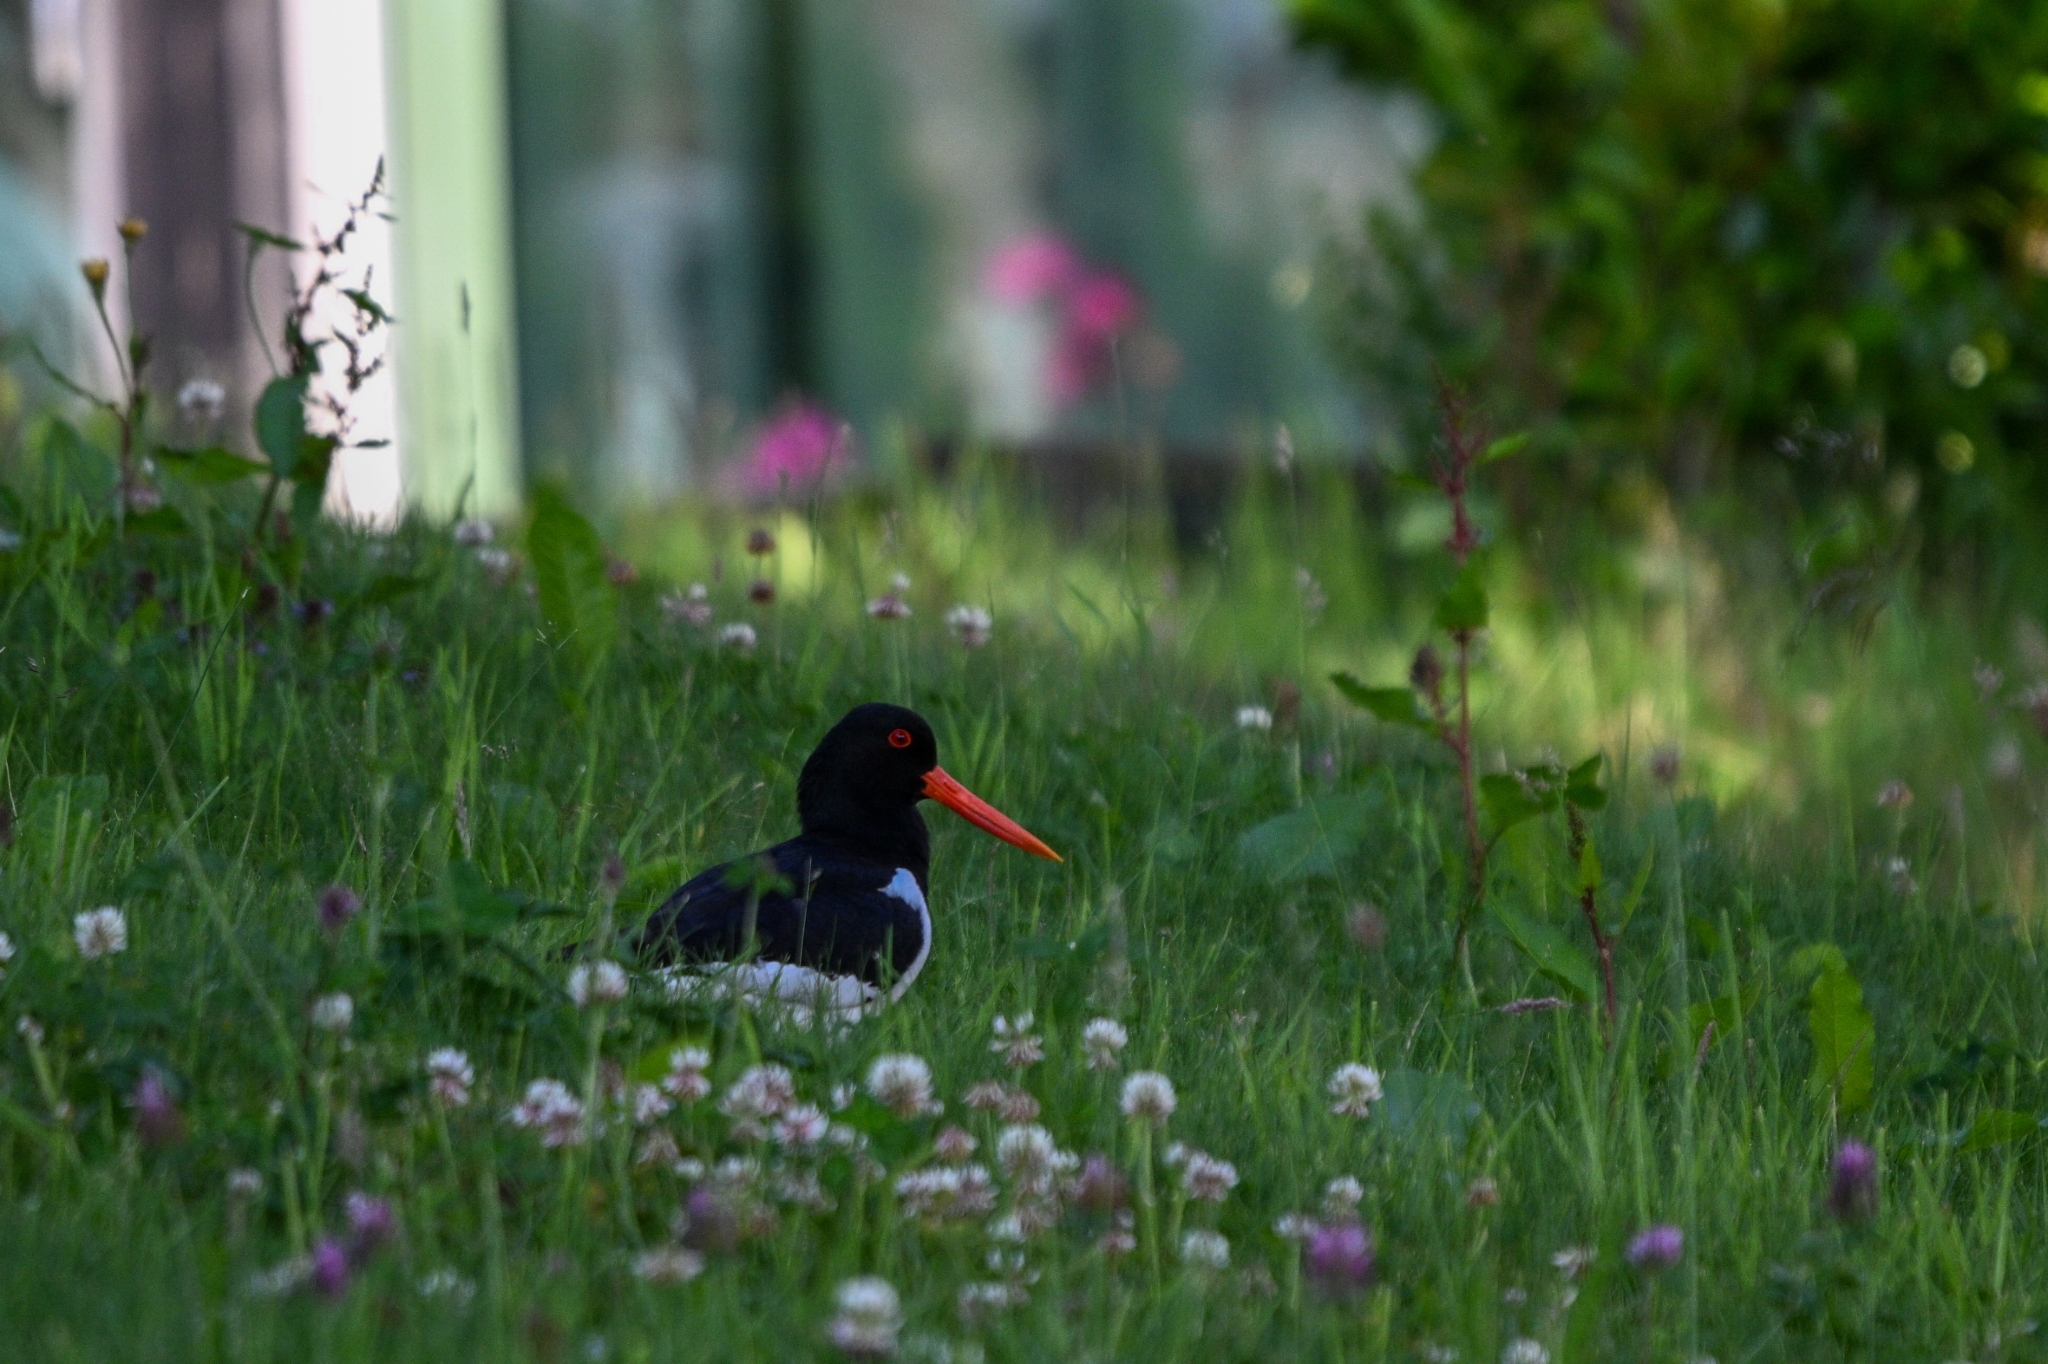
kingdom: Animalia
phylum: Chordata
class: Aves
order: Charadriiformes
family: Haematopodidae
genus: Haematopus
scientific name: Haematopus ostralegus
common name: Eurasian oystercatcher
